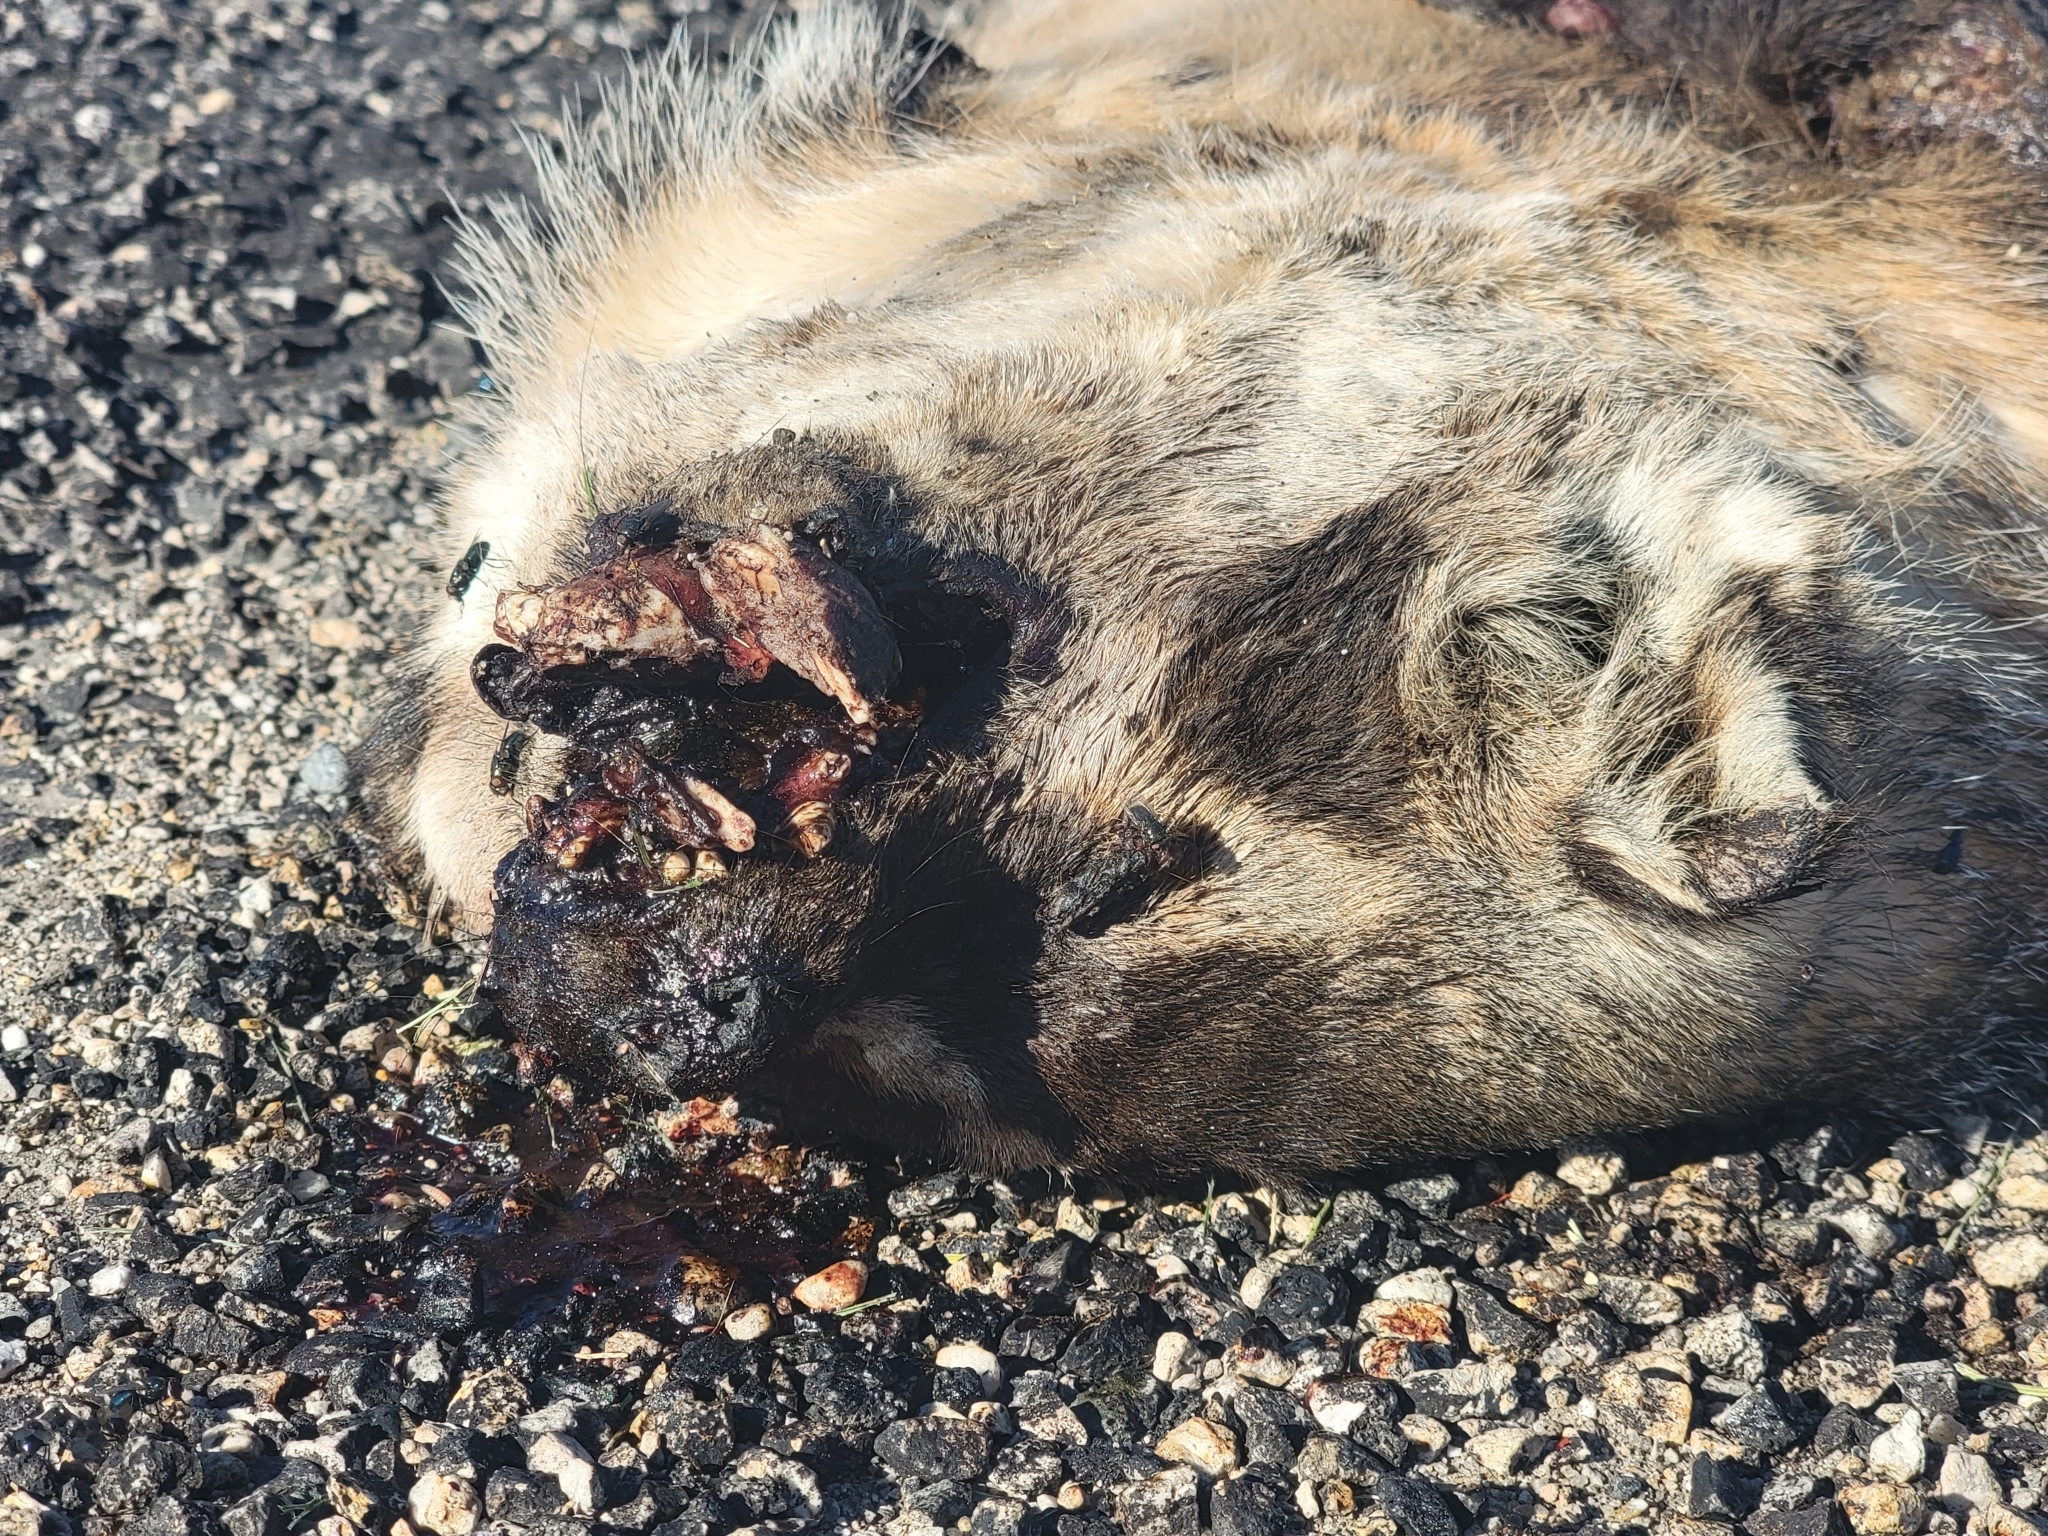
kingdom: Animalia
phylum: Chordata
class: Mammalia
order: Carnivora
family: Mustelidae
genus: Taxidea
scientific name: Taxidea taxus
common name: American badger
